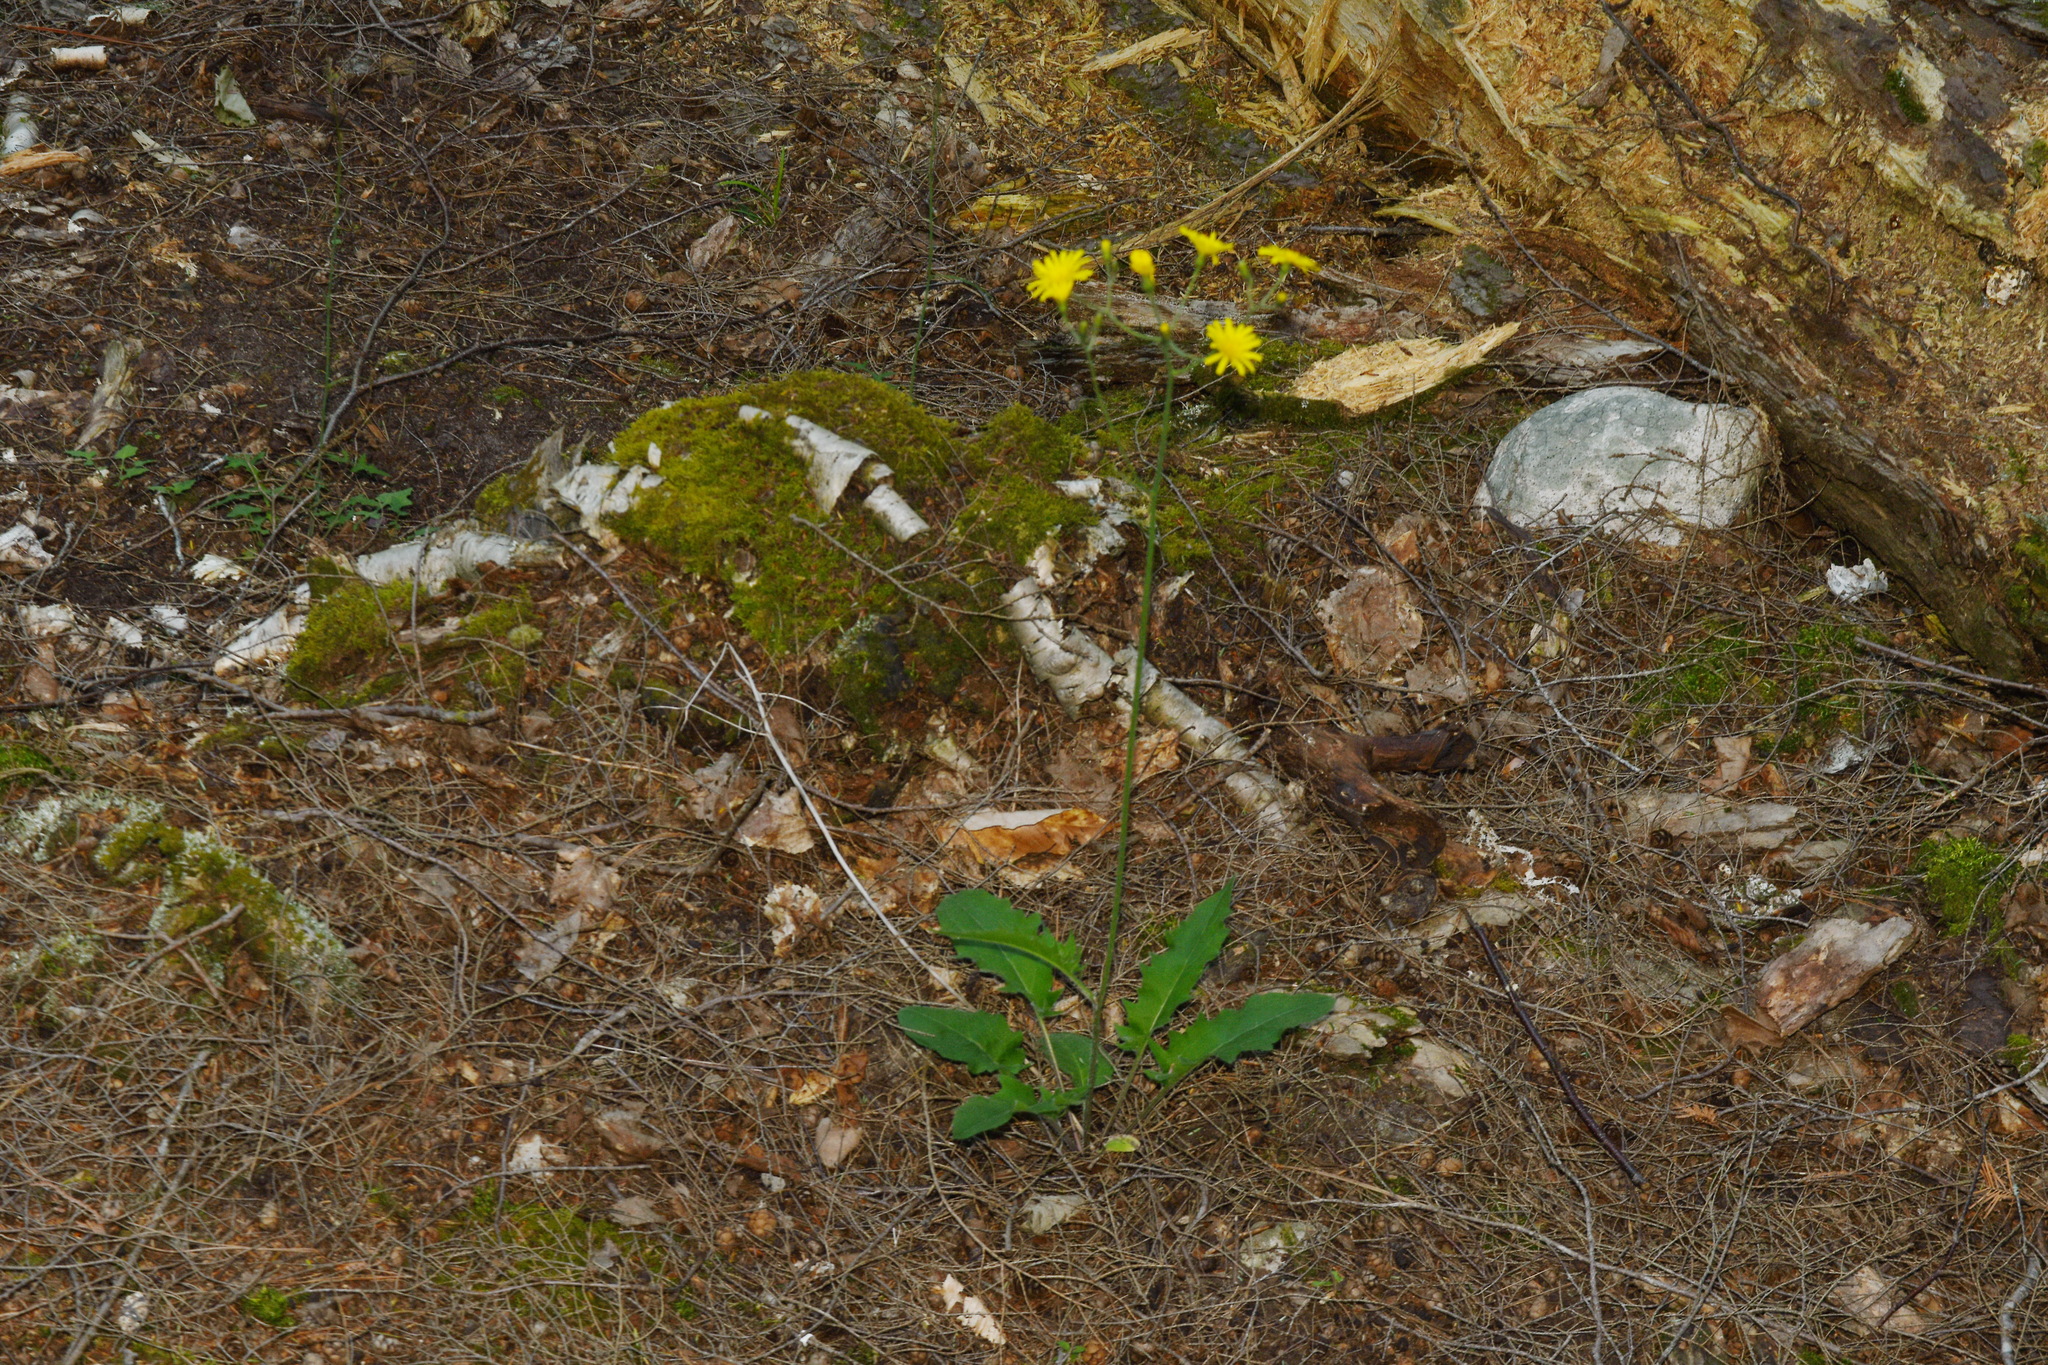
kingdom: Plantae
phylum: Tracheophyta
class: Magnoliopsida
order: Asterales
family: Asteraceae
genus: Hieracium
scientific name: Hieracium murorum
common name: Wall hawkweed
